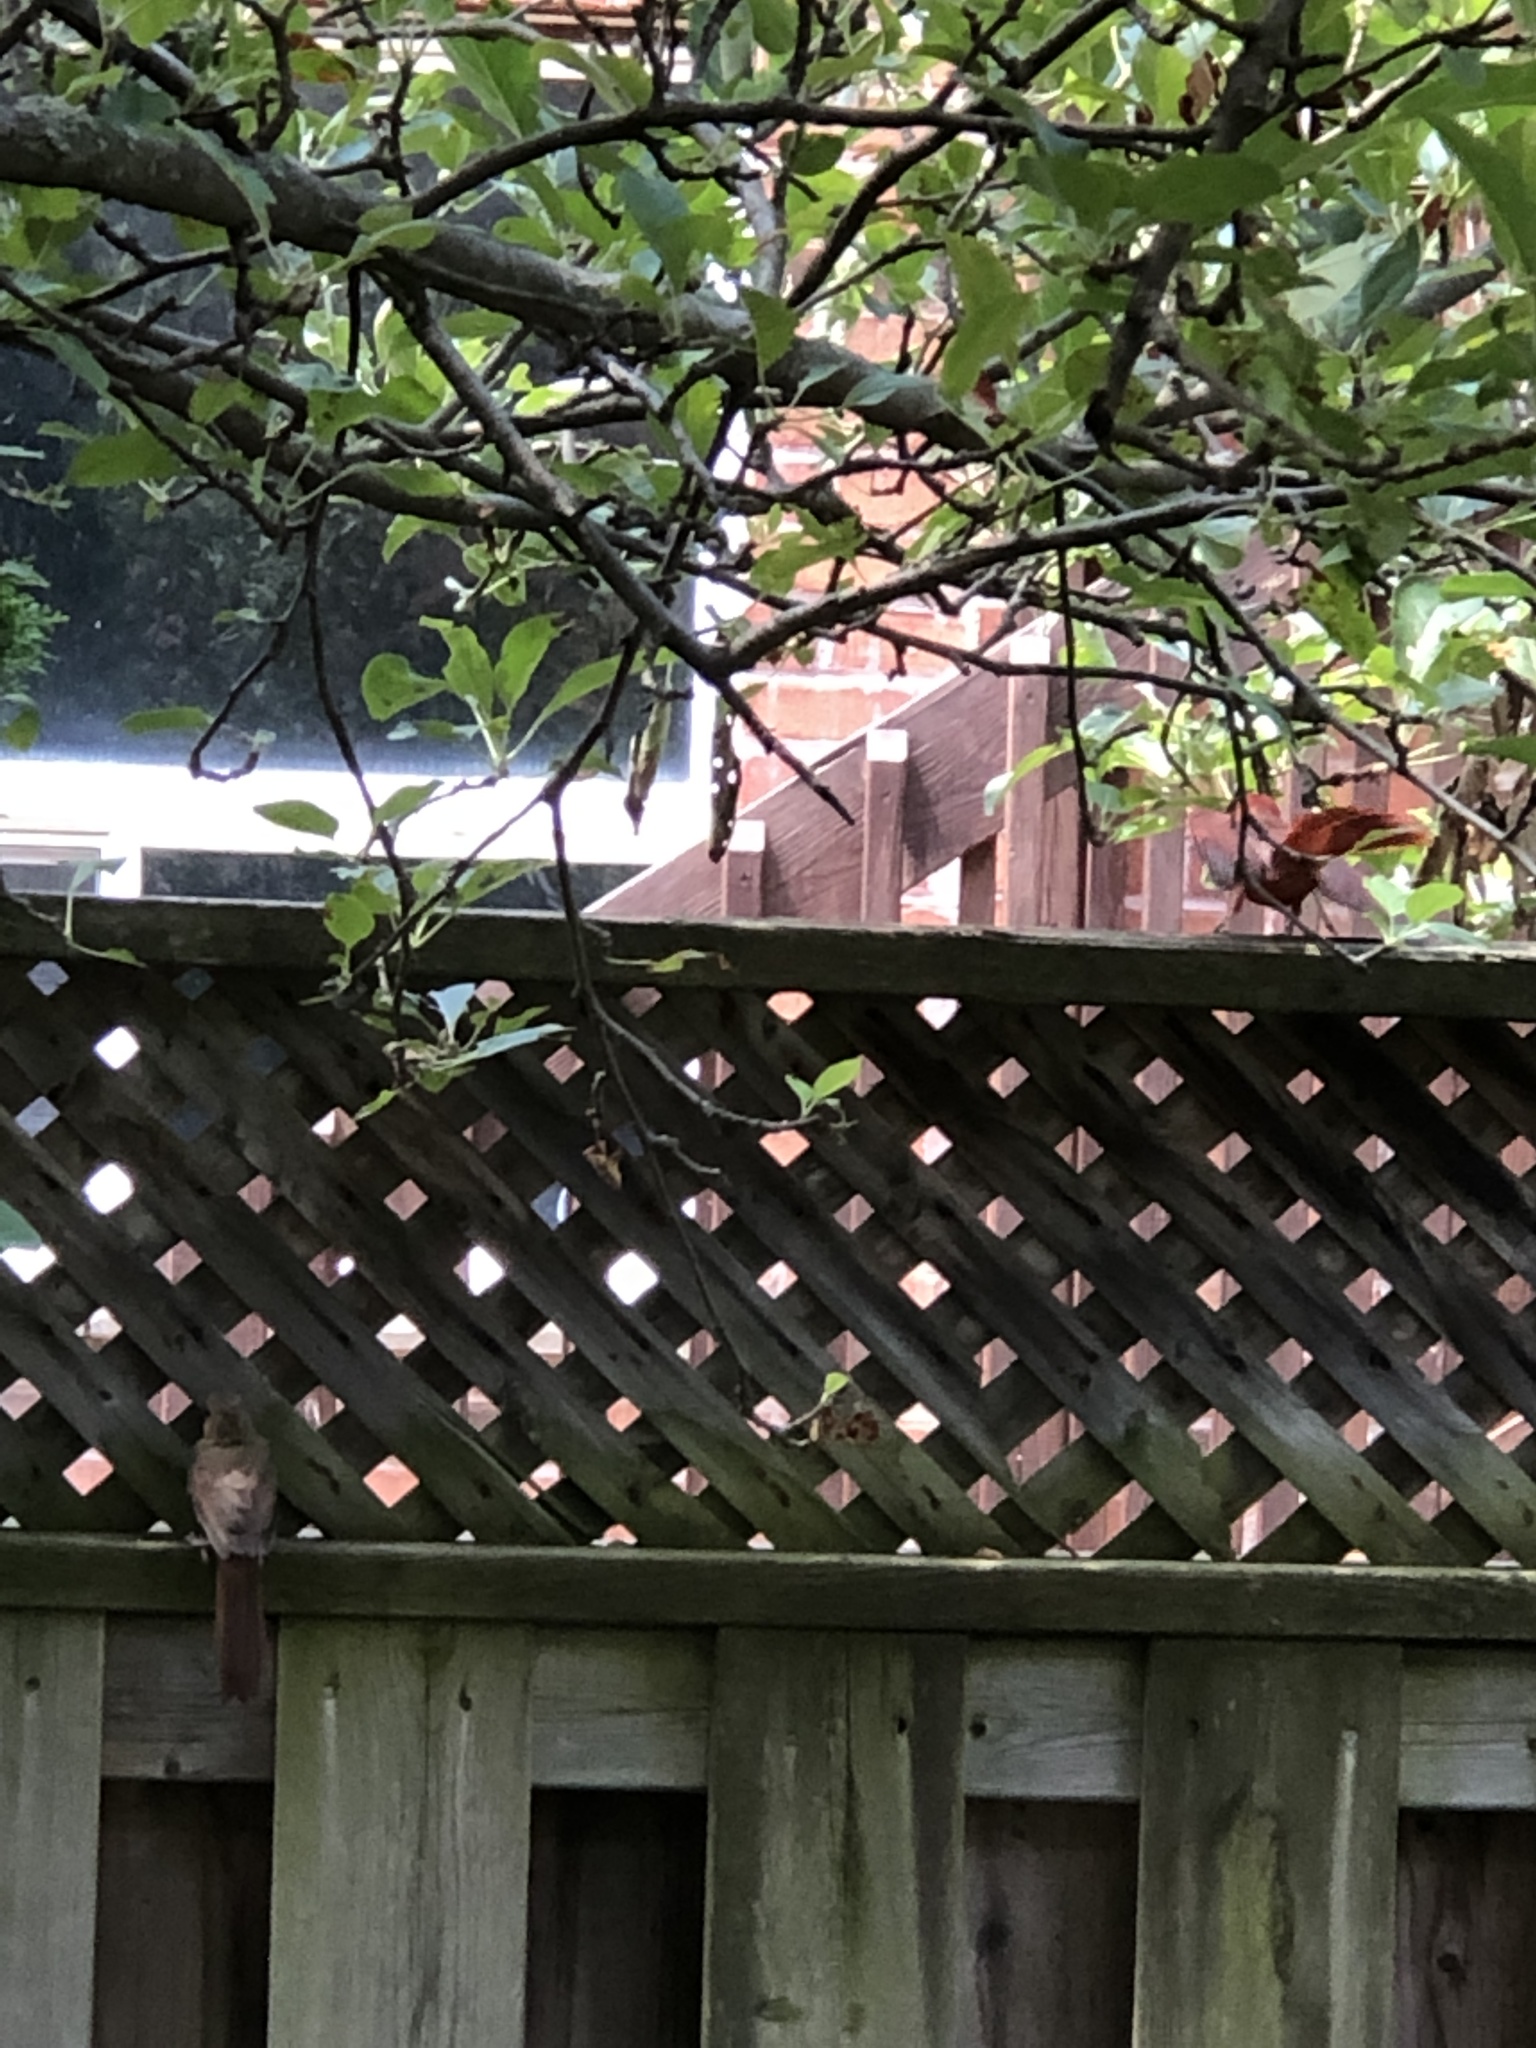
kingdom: Animalia
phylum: Chordata
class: Aves
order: Passeriformes
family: Cardinalidae
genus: Cardinalis
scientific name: Cardinalis cardinalis
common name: Northern cardinal
